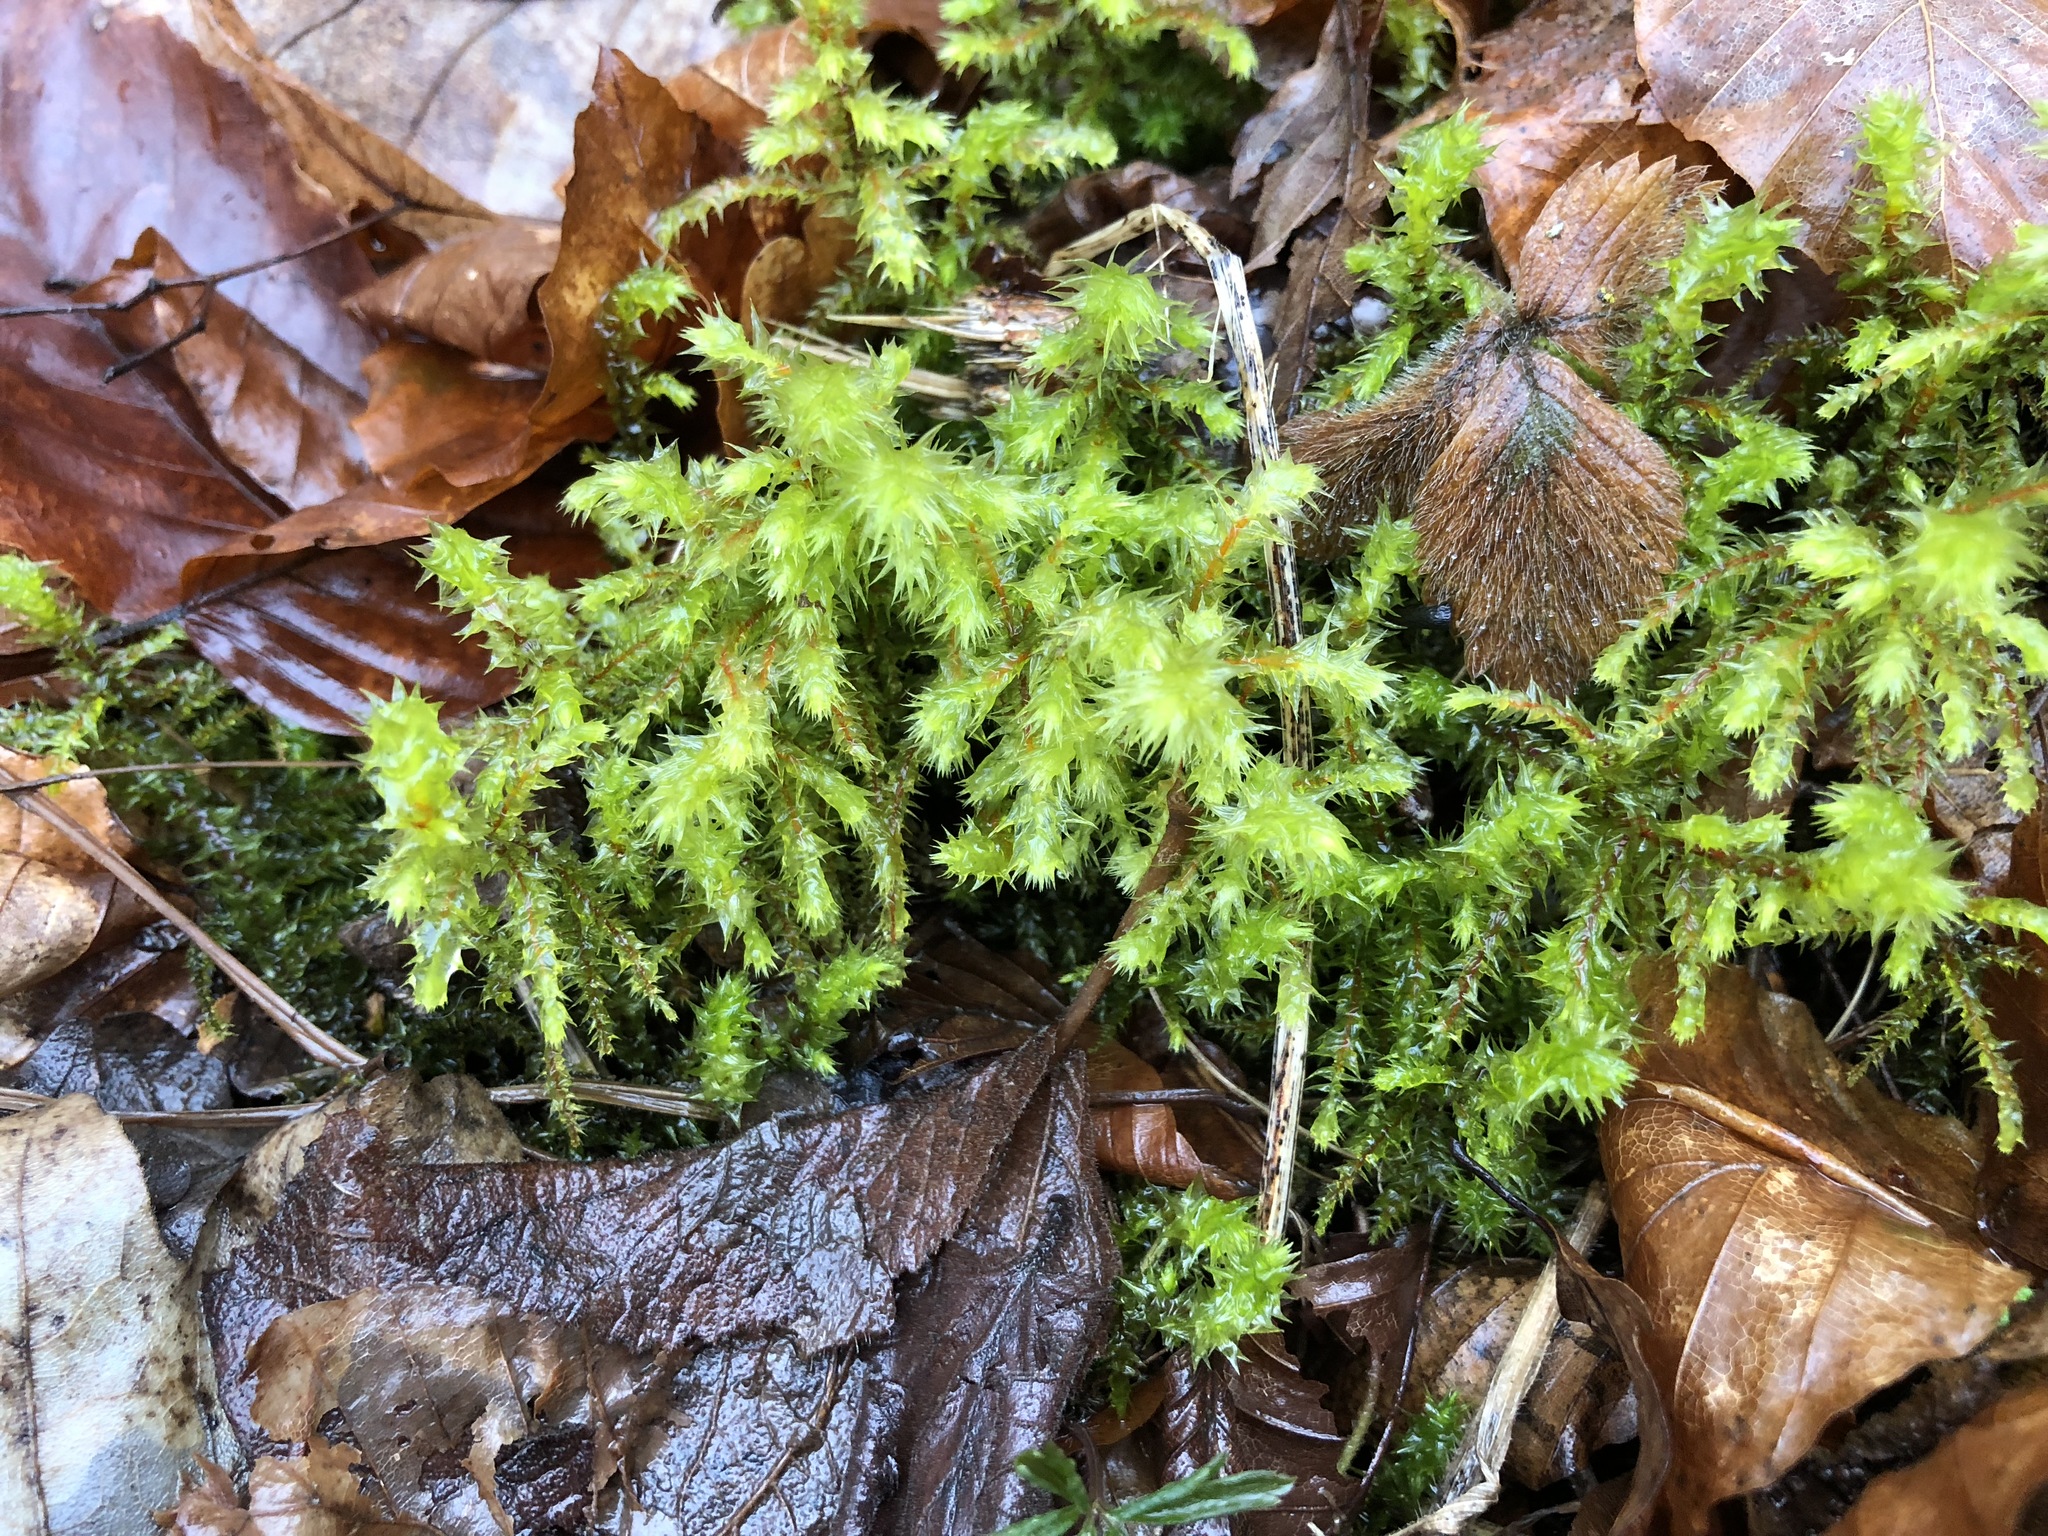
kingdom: Plantae
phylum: Bryophyta
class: Bryopsida
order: Hypnales
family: Hylocomiaceae
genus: Hylocomiadelphus
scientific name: Hylocomiadelphus triquetrus
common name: Rough goose neck moss
